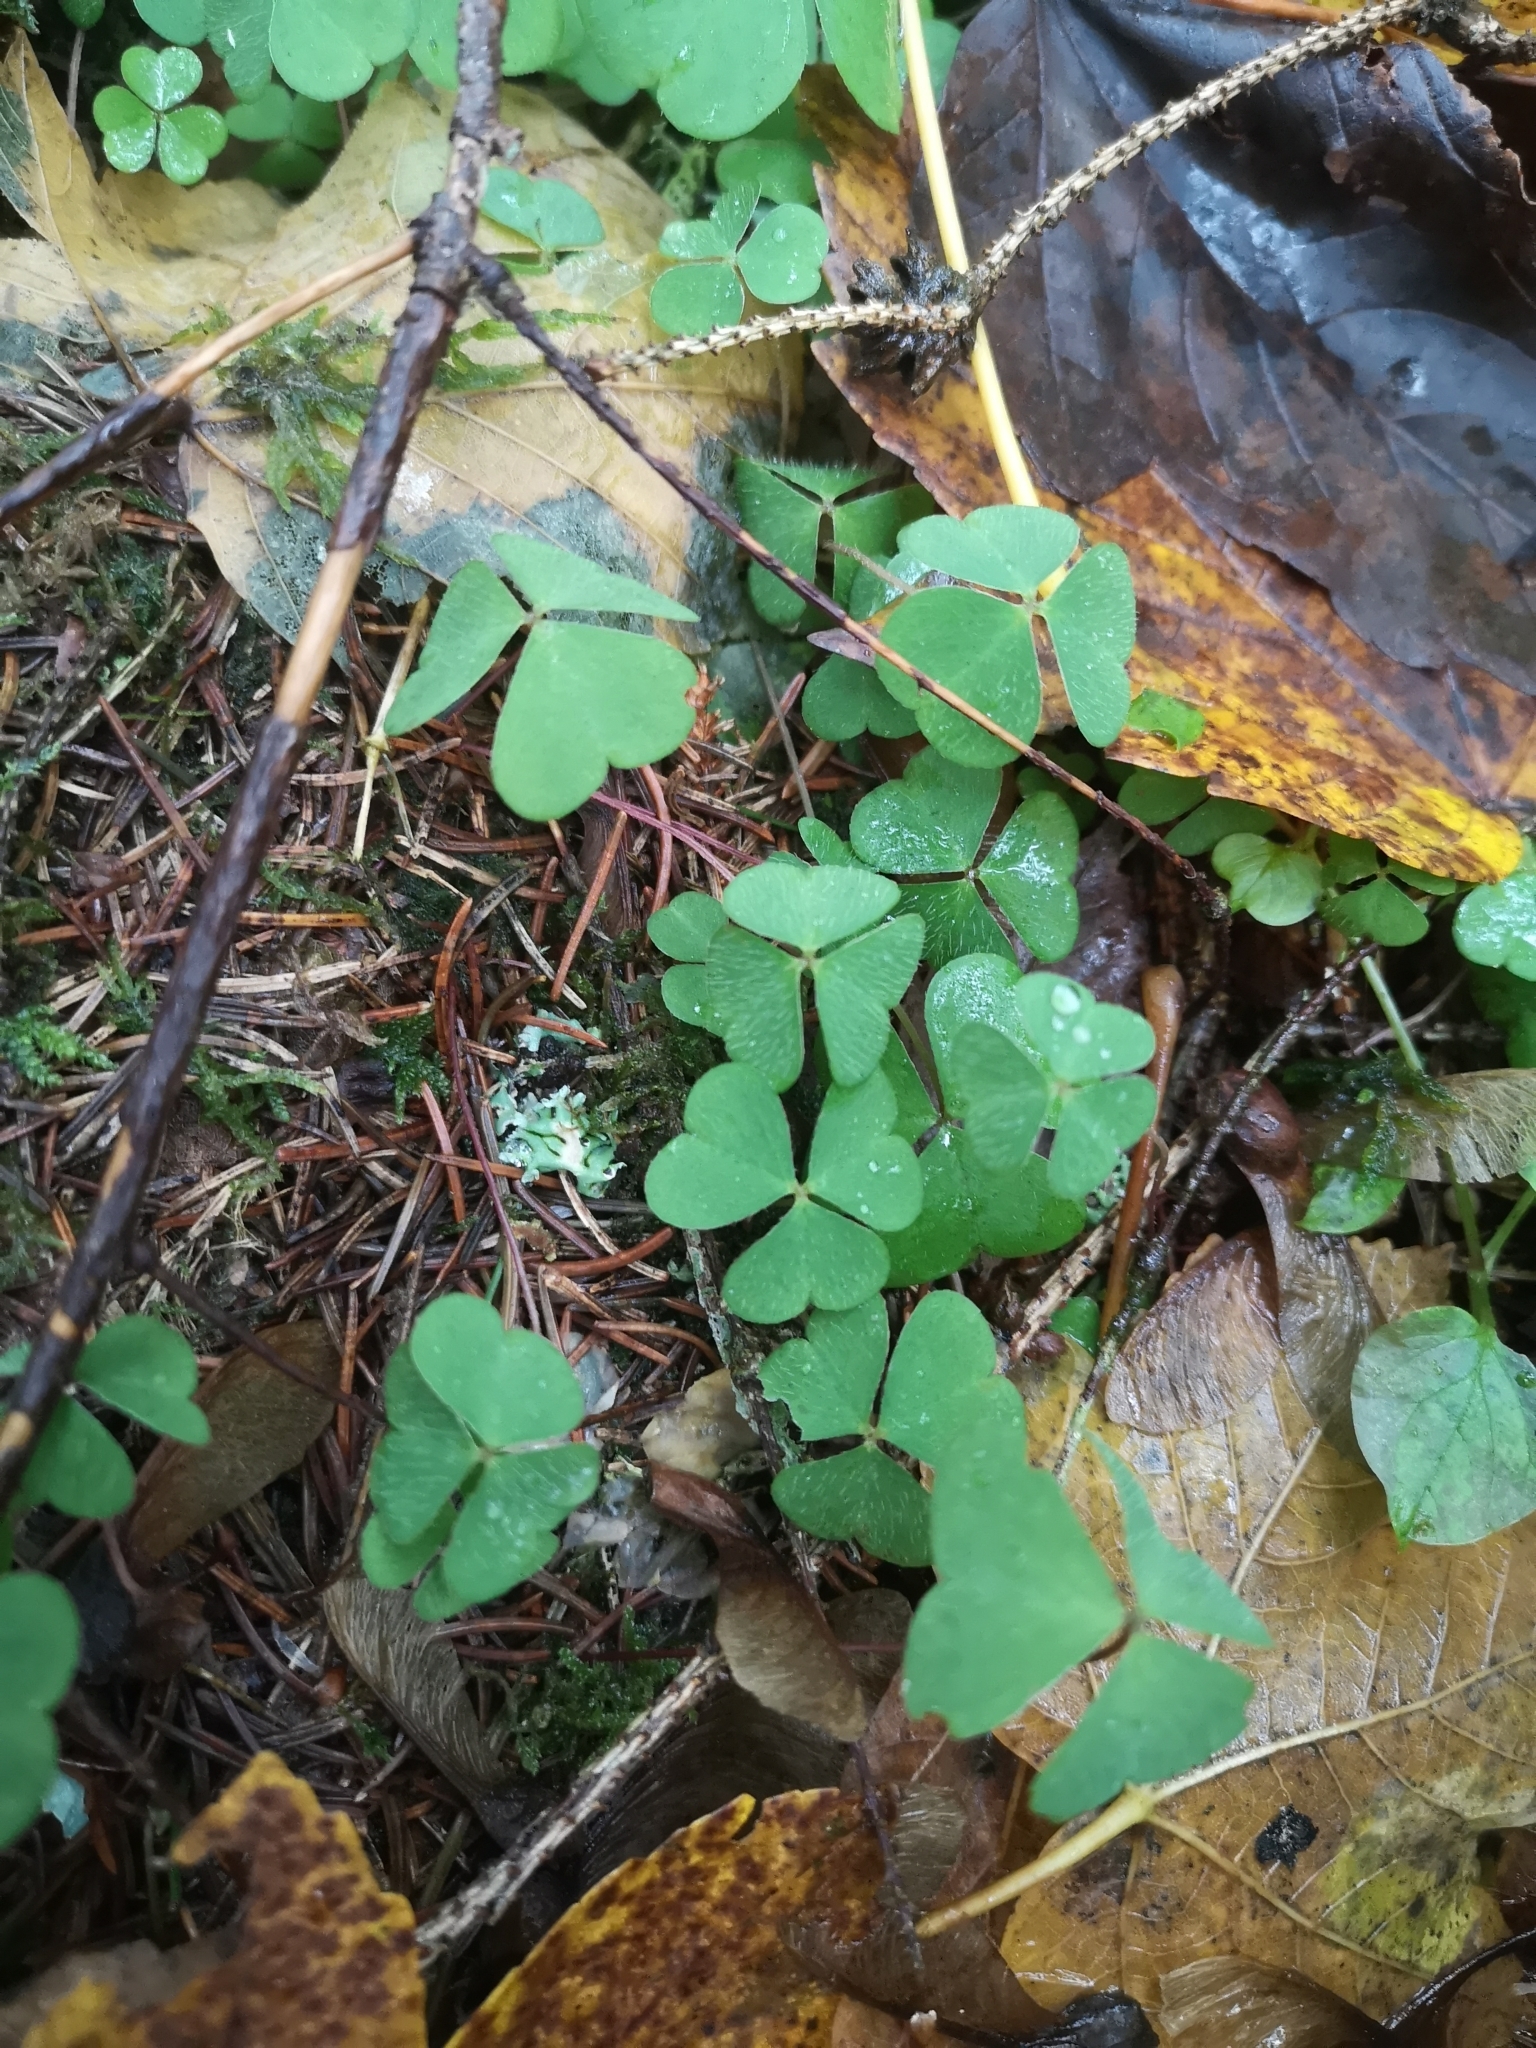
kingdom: Plantae
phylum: Tracheophyta
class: Magnoliopsida
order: Oxalidales
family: Oxalidaceae
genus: Oxalis
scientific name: Oxalis acetosella
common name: Wood-sorrel
